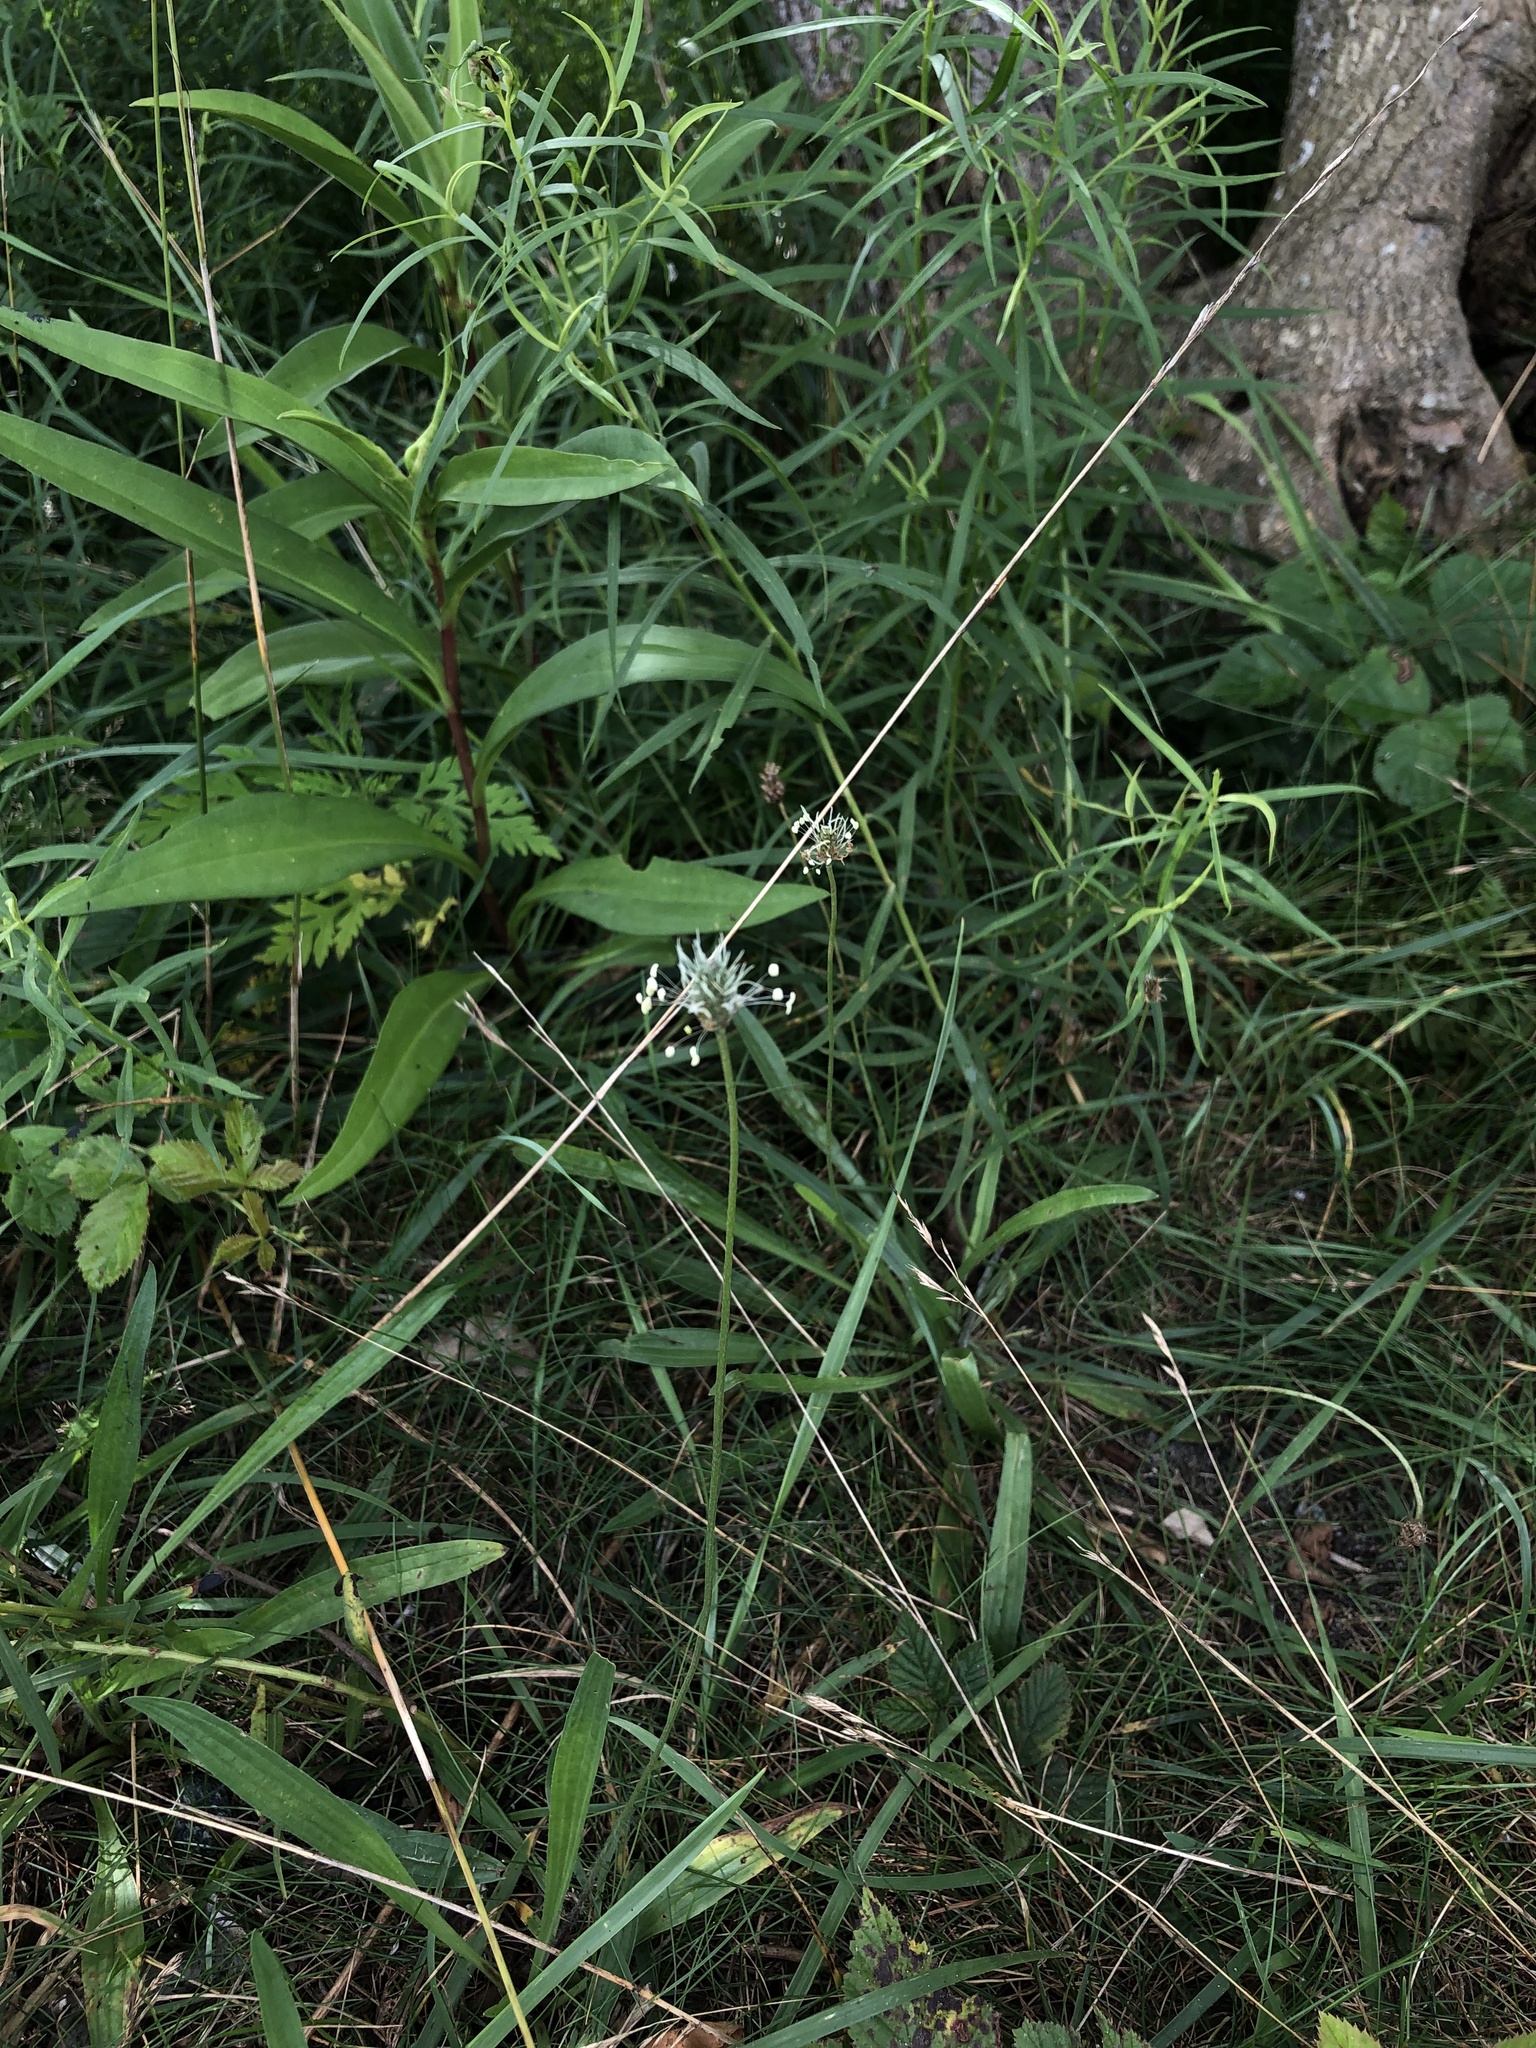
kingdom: Plantae
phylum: Tracheophyta
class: Magnoliopsida
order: Lamiales
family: Plantaginaceae
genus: Plantago
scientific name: Plantago lanceolata
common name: Ribwort plantain
